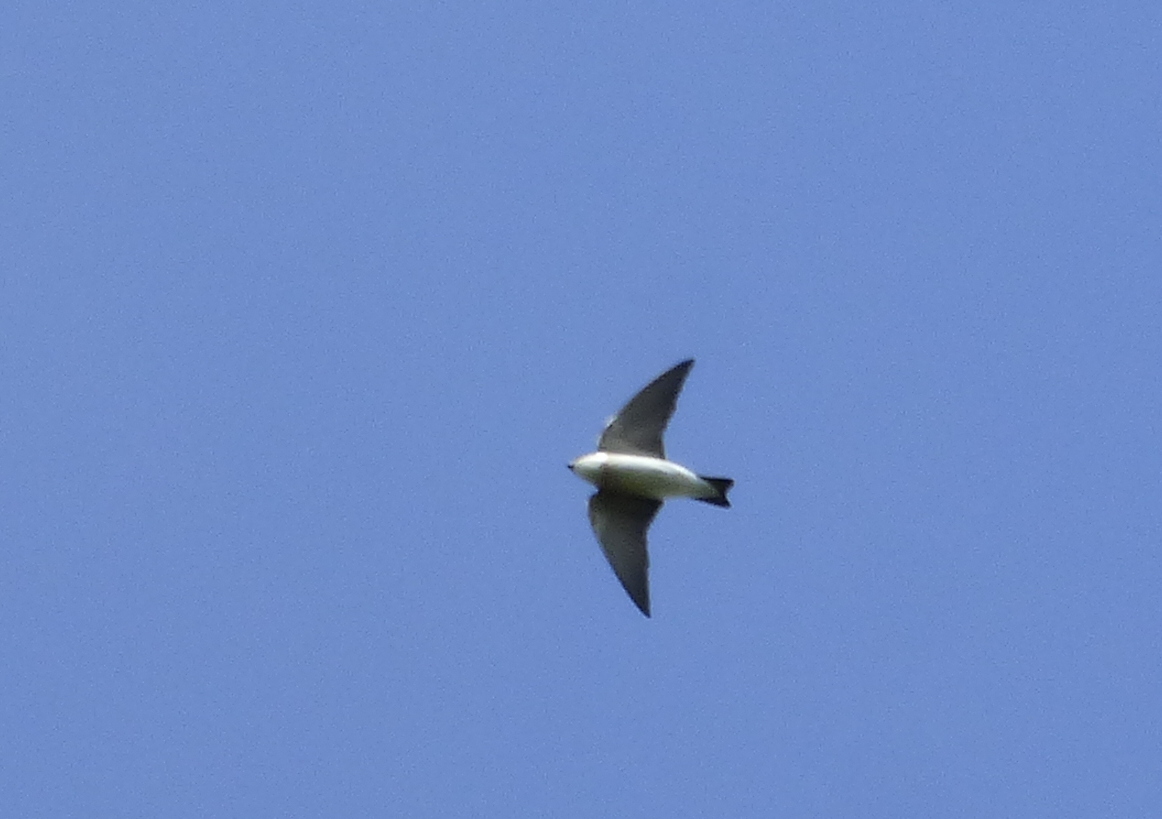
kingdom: Animalia
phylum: Chordata
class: Aves
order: Passeriformes
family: Hirundinidae
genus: Tachycineta
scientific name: Tachycineta leucorrhoa
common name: White-rumped swallow
